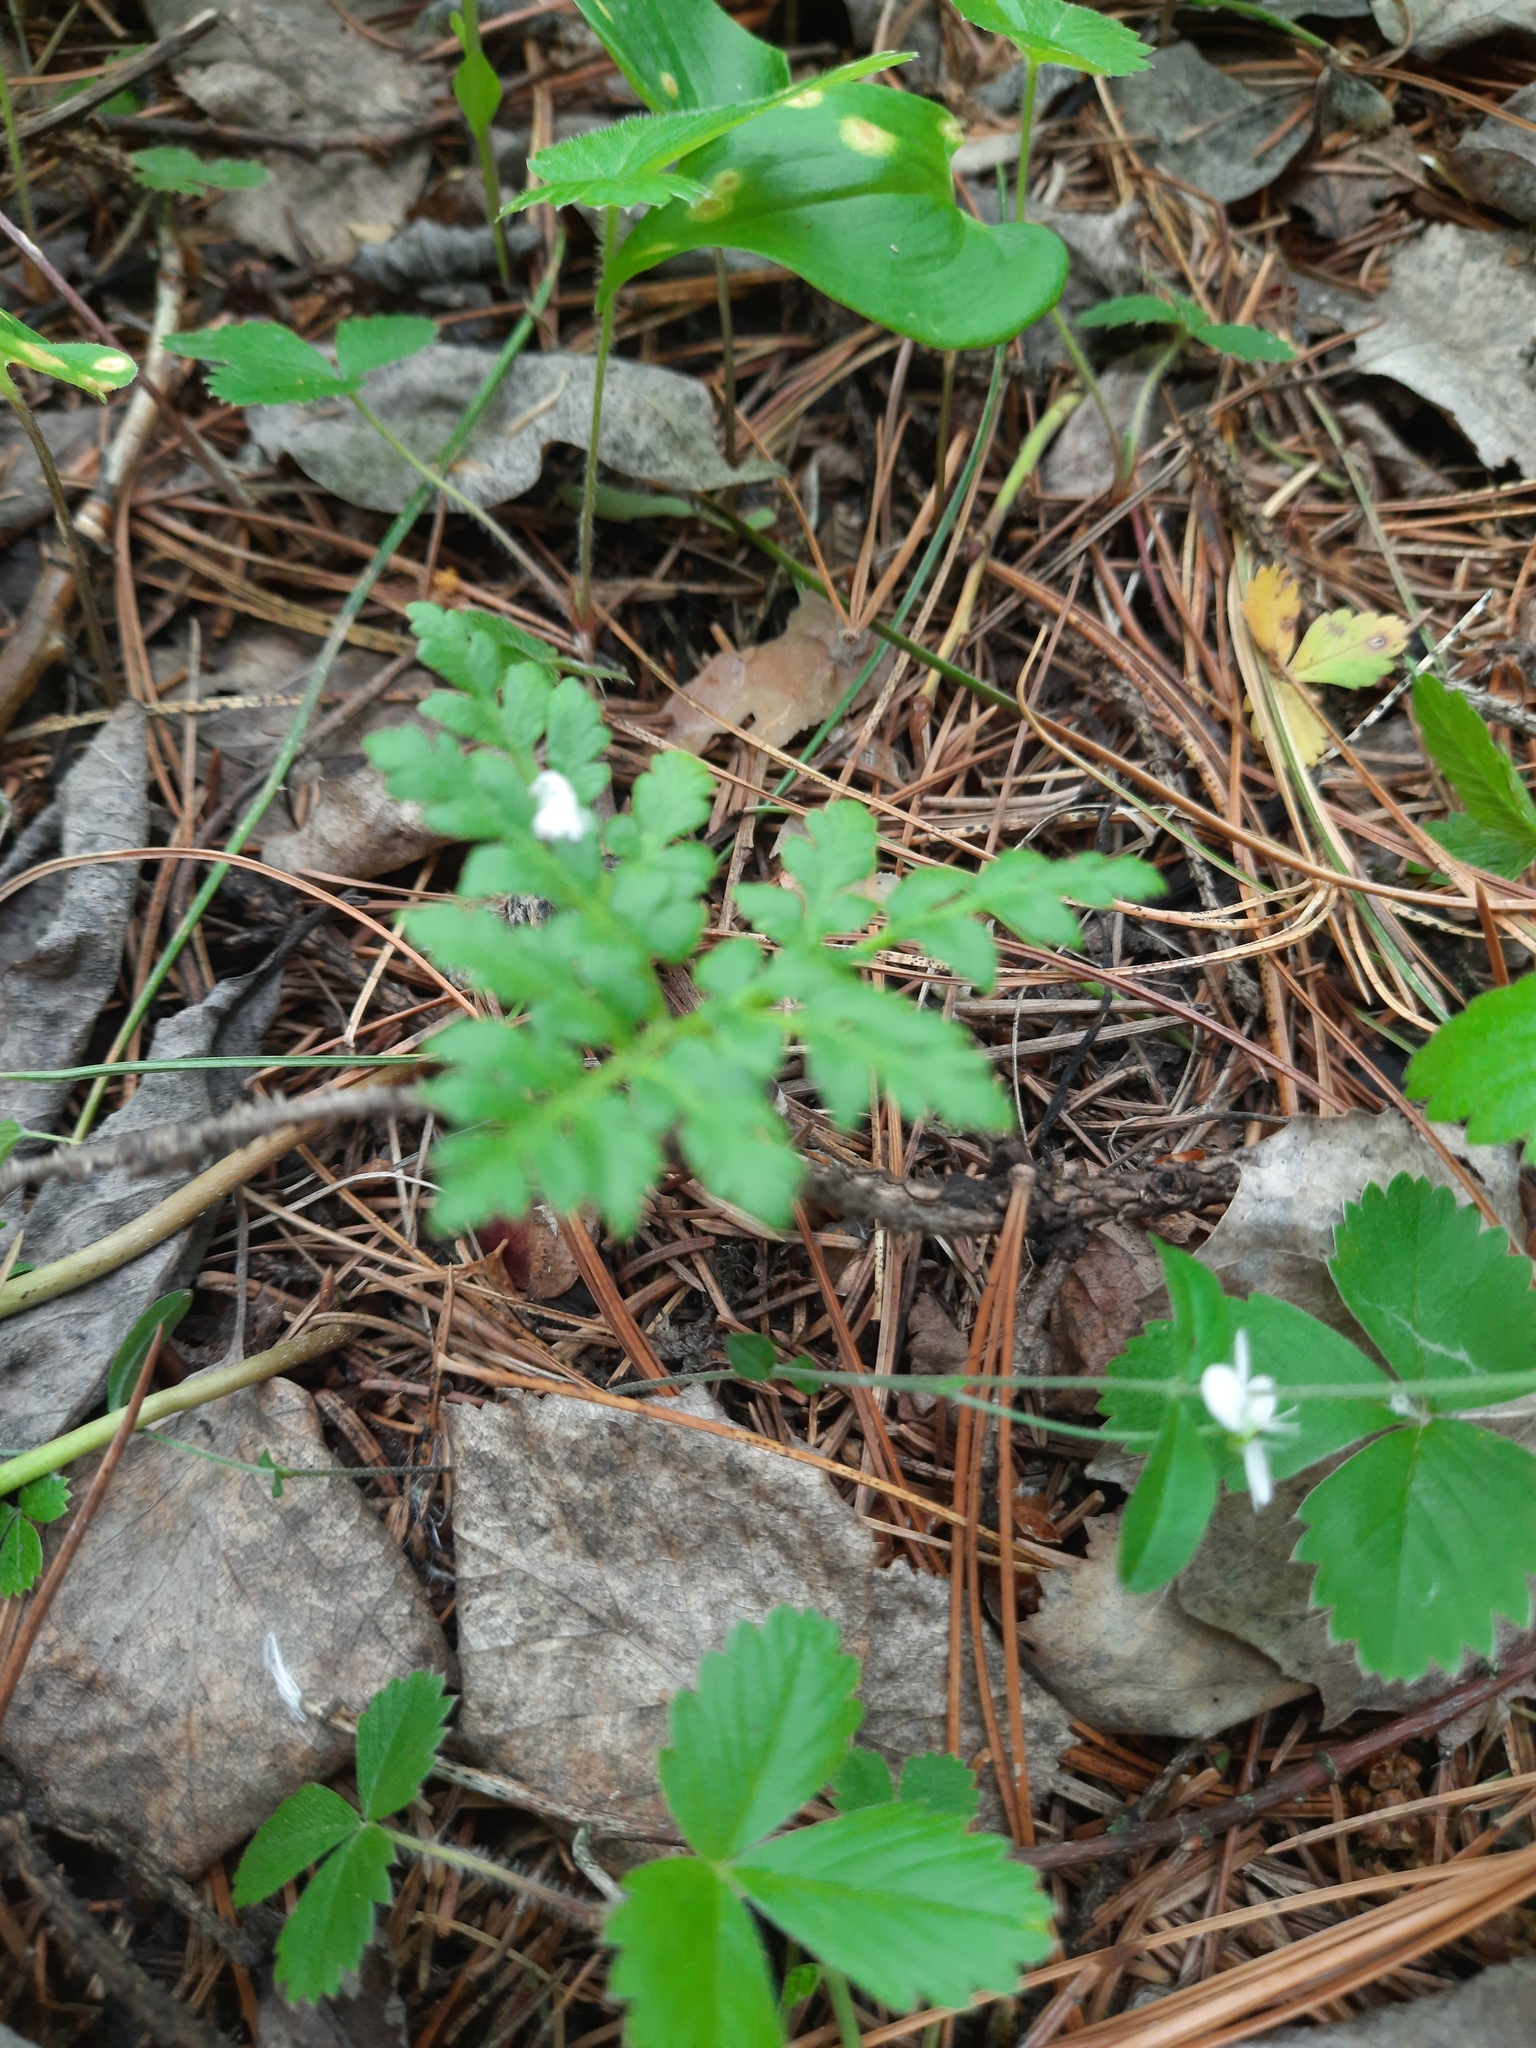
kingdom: Plantae
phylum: Tracheophyta
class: Polypodiopsida
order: Ophioglossales
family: Ophioglossaceae
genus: Sceptridium
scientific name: Sceptridium multifidum
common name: Leathery grape fern
